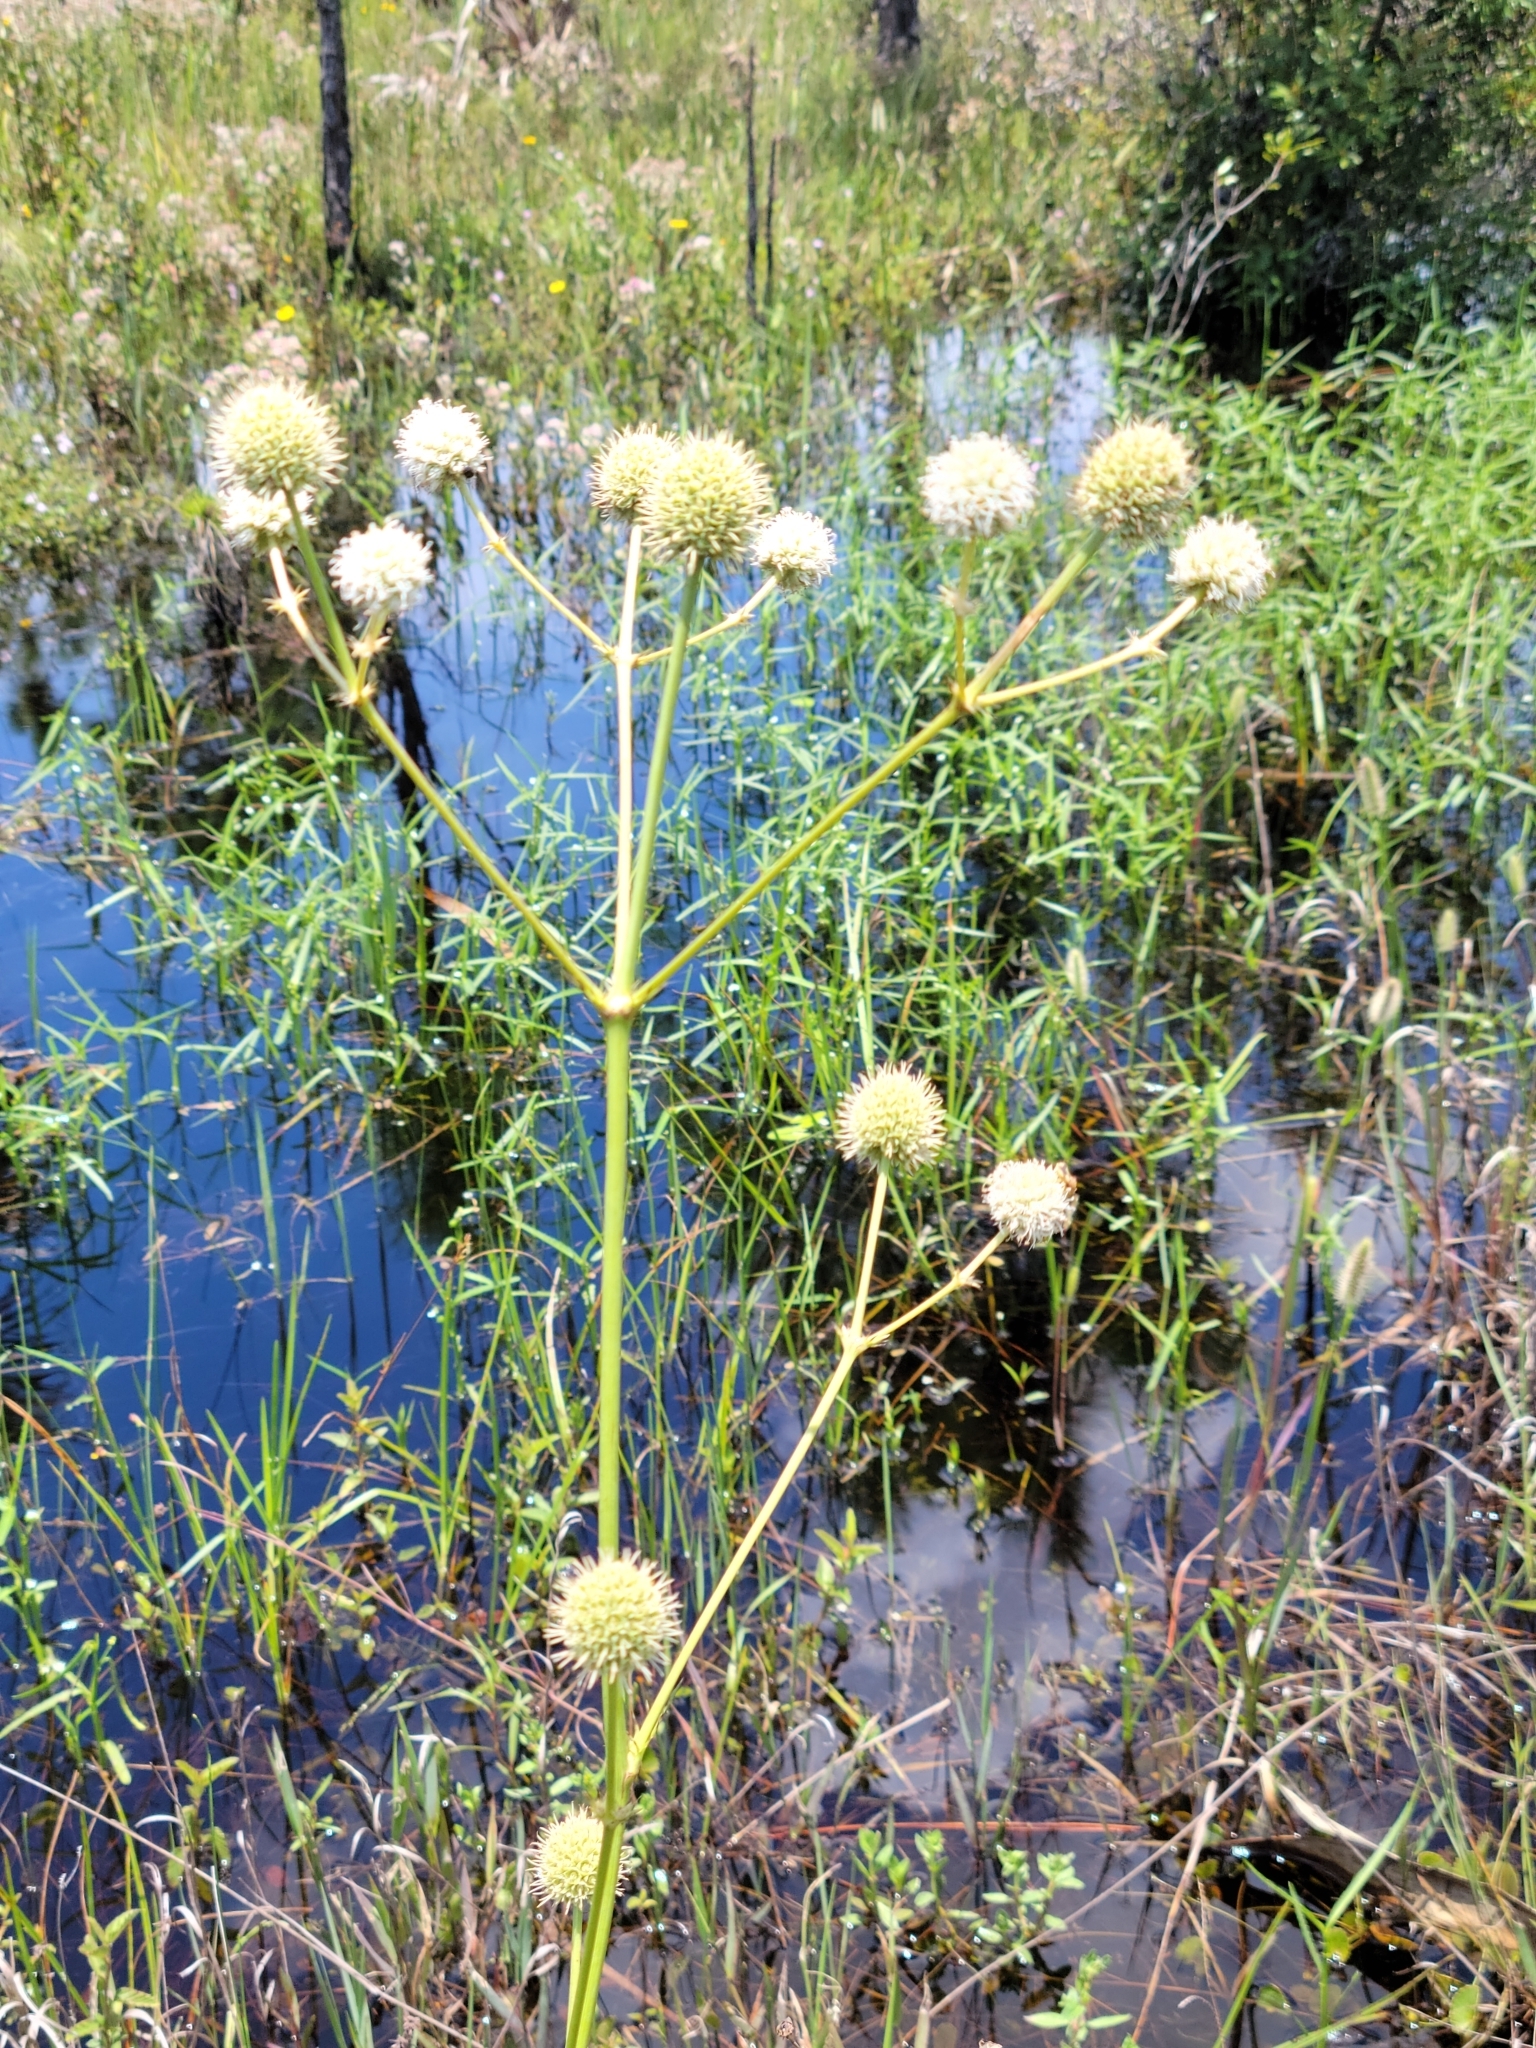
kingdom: Plantae
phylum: Tracheophyta
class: Magnoliopsida
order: Apiales
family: Apiaceae
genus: Eryngium
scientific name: Eryngium yuccifolium
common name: Button eryngo
